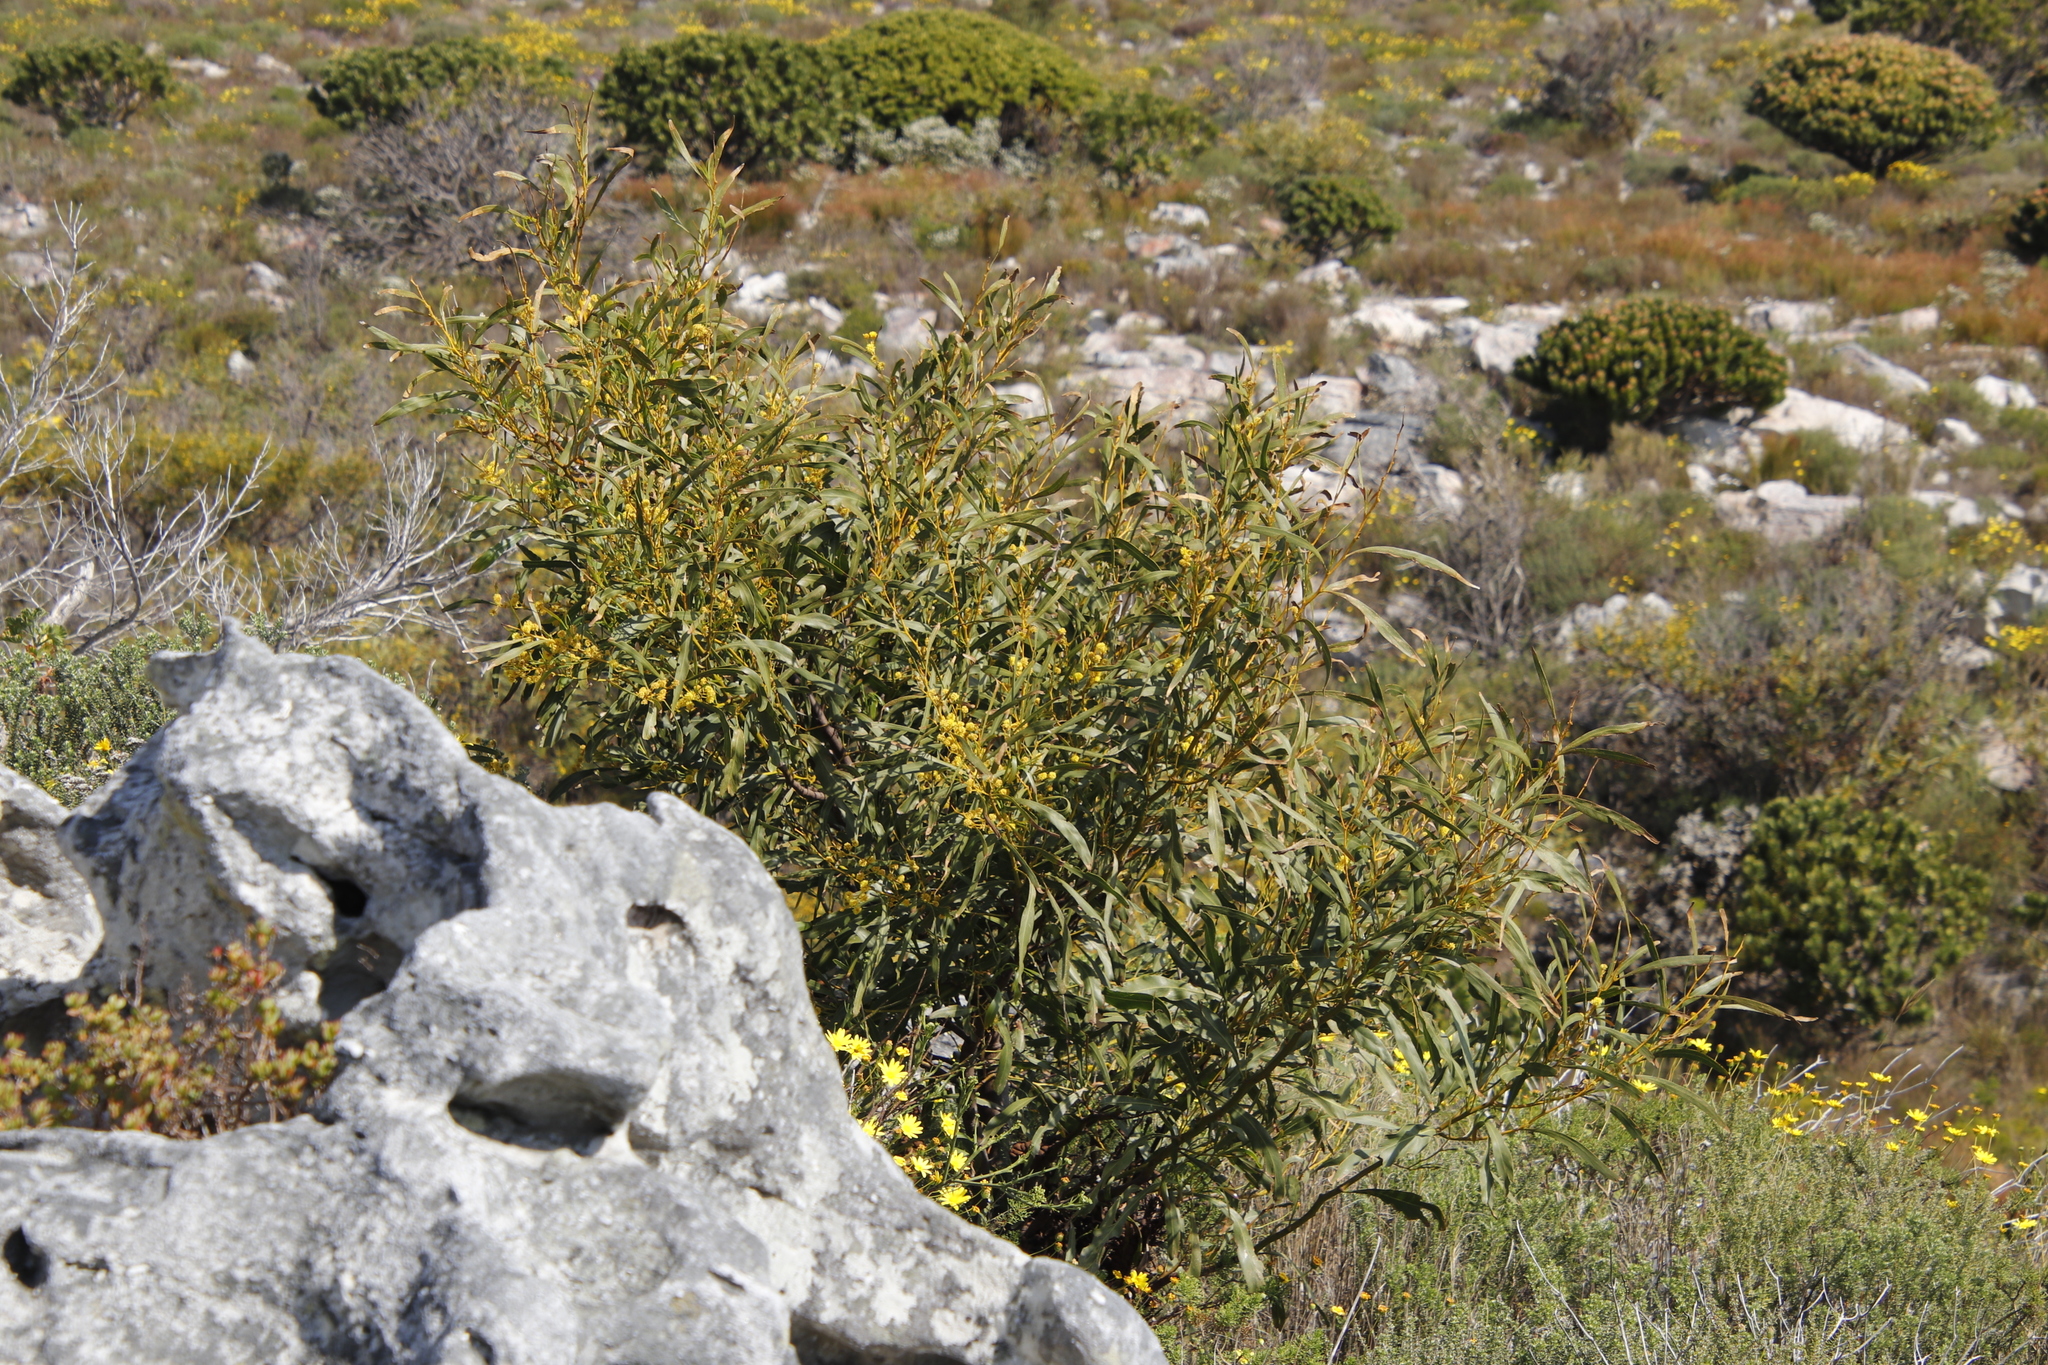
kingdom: Plantae
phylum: Tracheophyta
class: Magnoliopsida
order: Fabales
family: Fabaceae
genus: Acacia
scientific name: Acacia saligna
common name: Orange wattle
